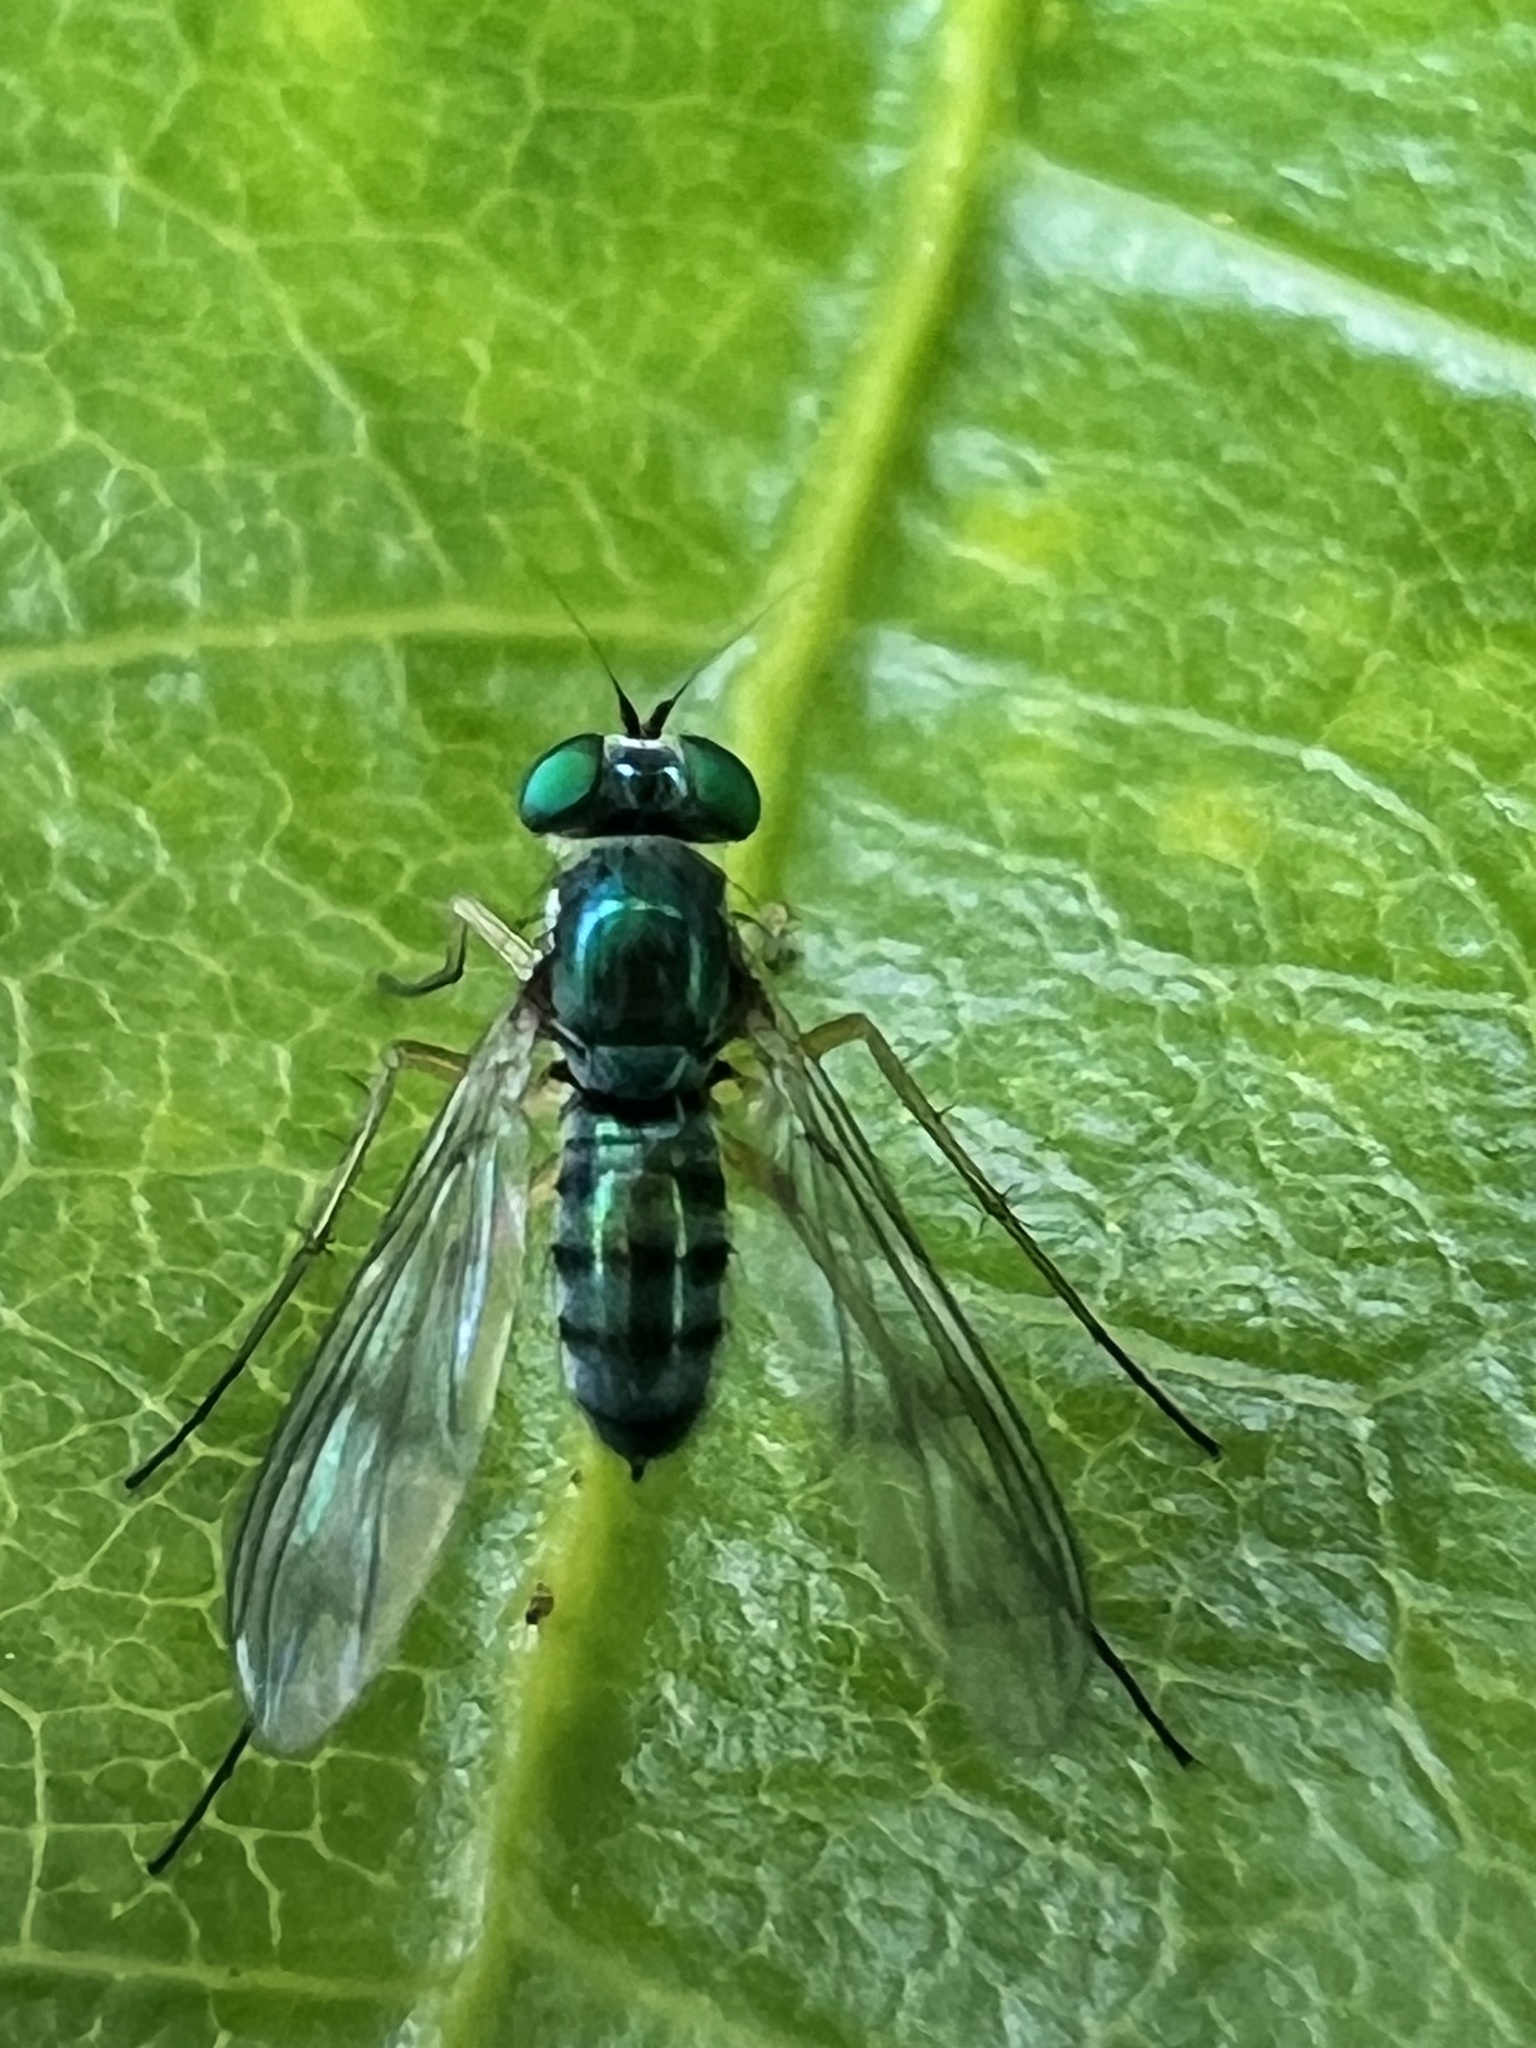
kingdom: Animalia
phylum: Arthropoda
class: Insecta
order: Diptera
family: Dolichopodidae
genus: Austrosciapus
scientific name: Austrosciapus proximus
